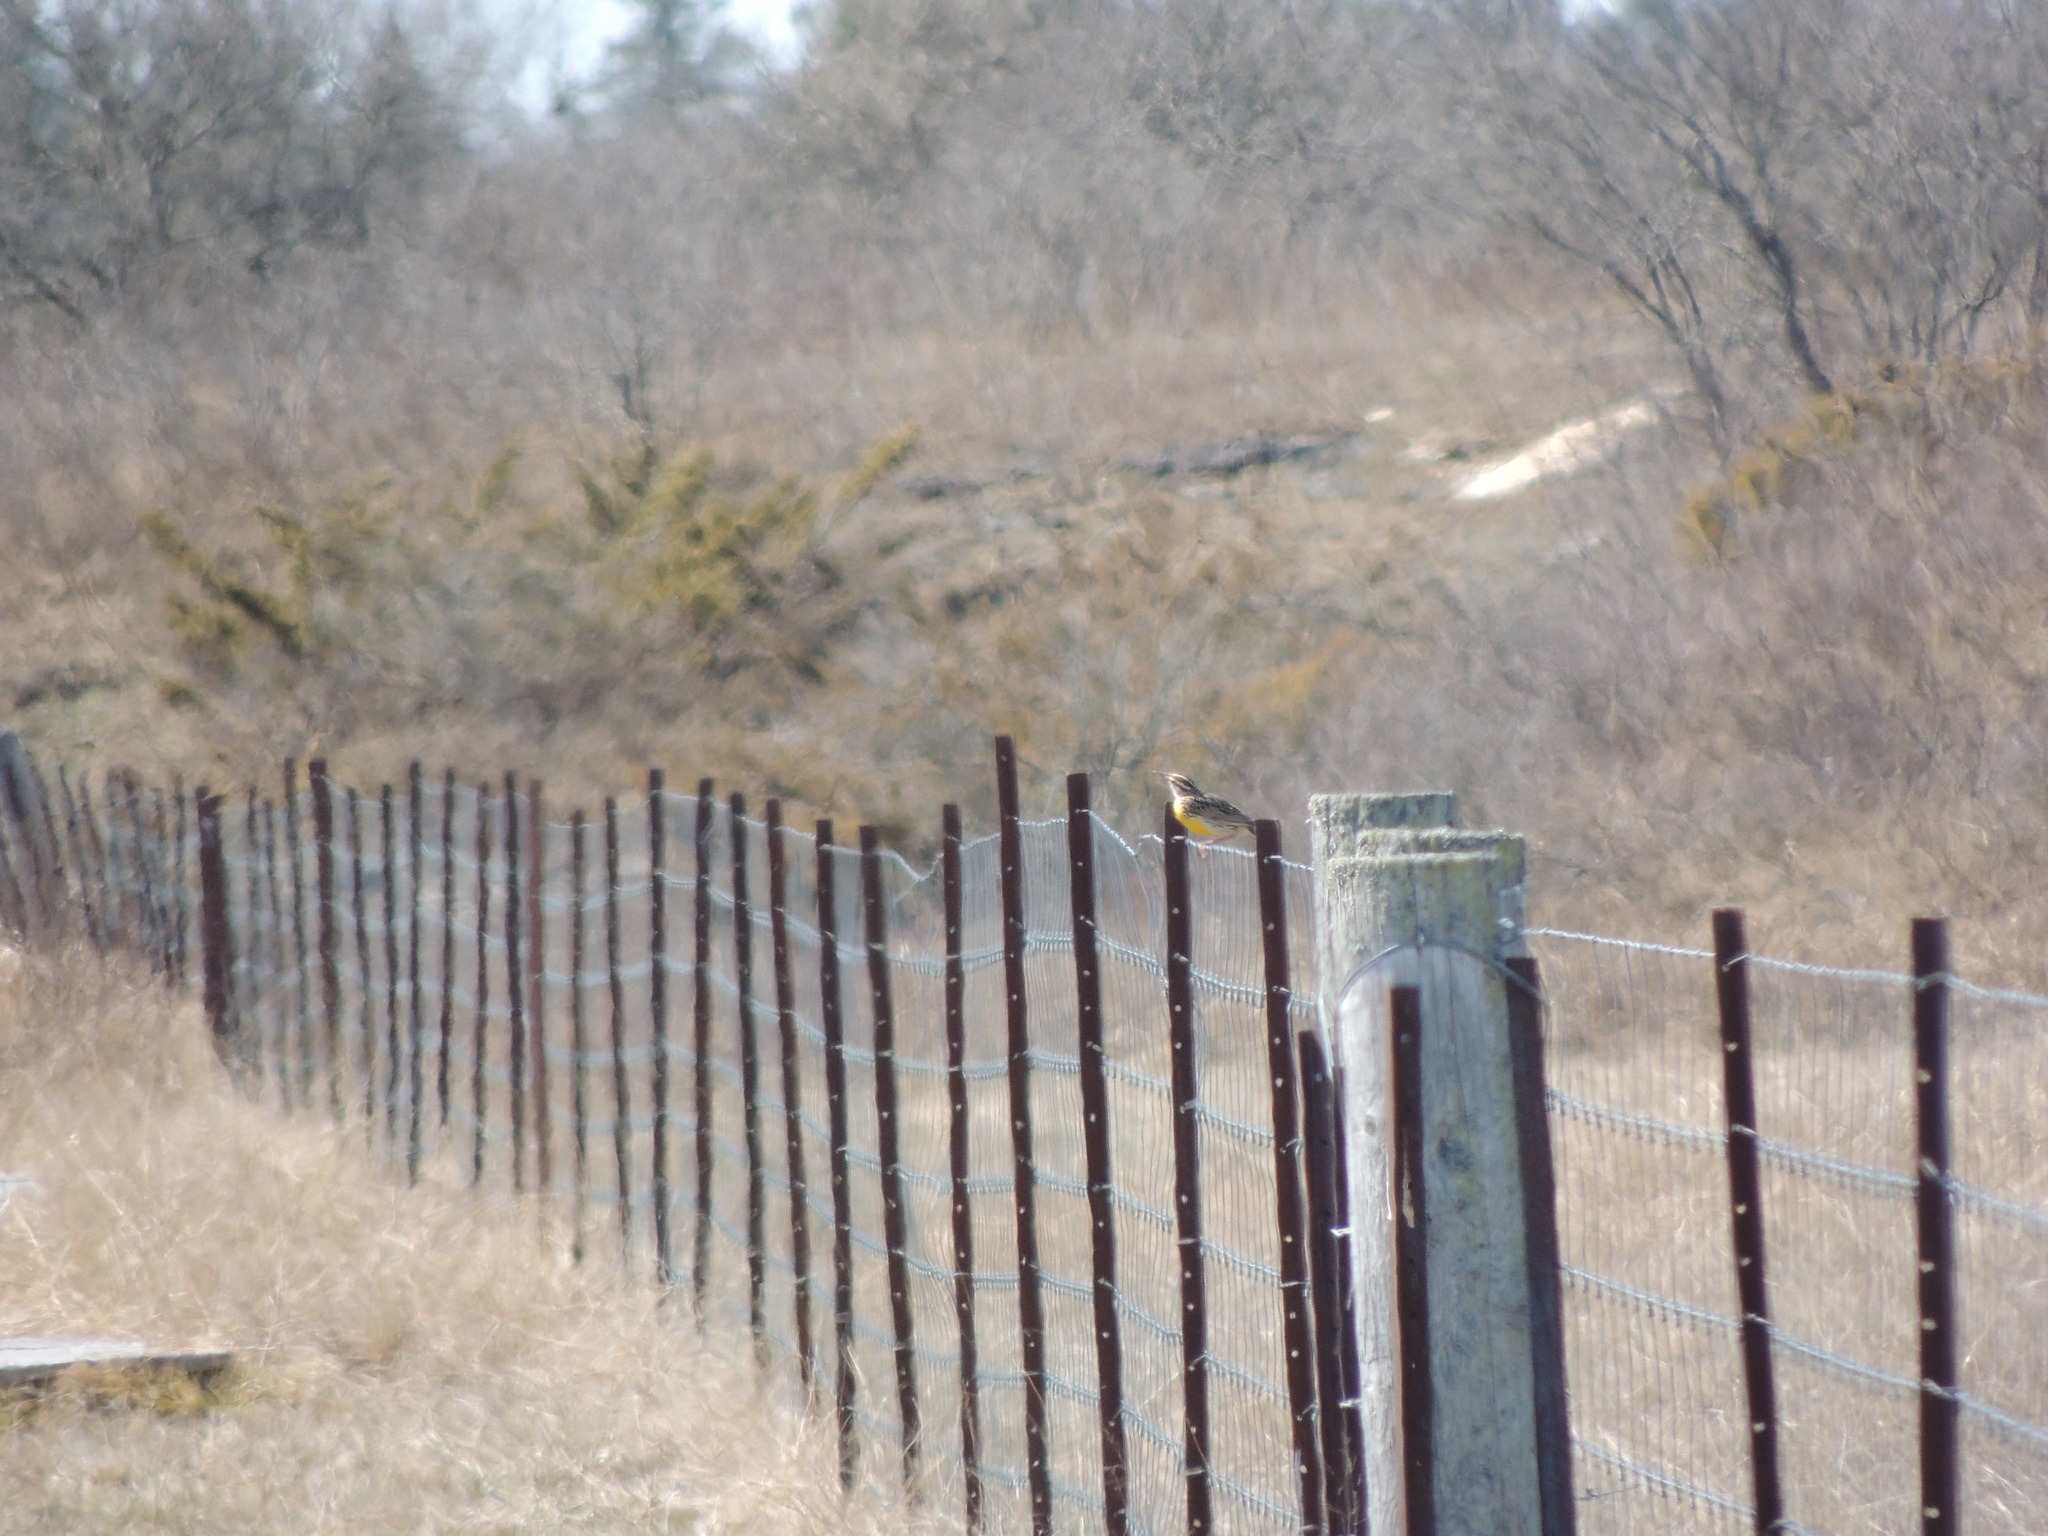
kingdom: Animalia
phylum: Chordata
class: Aves
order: Passeriformes
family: Icteridae
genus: Sturnella
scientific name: Sturnella magna
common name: Eastern meadowlark
